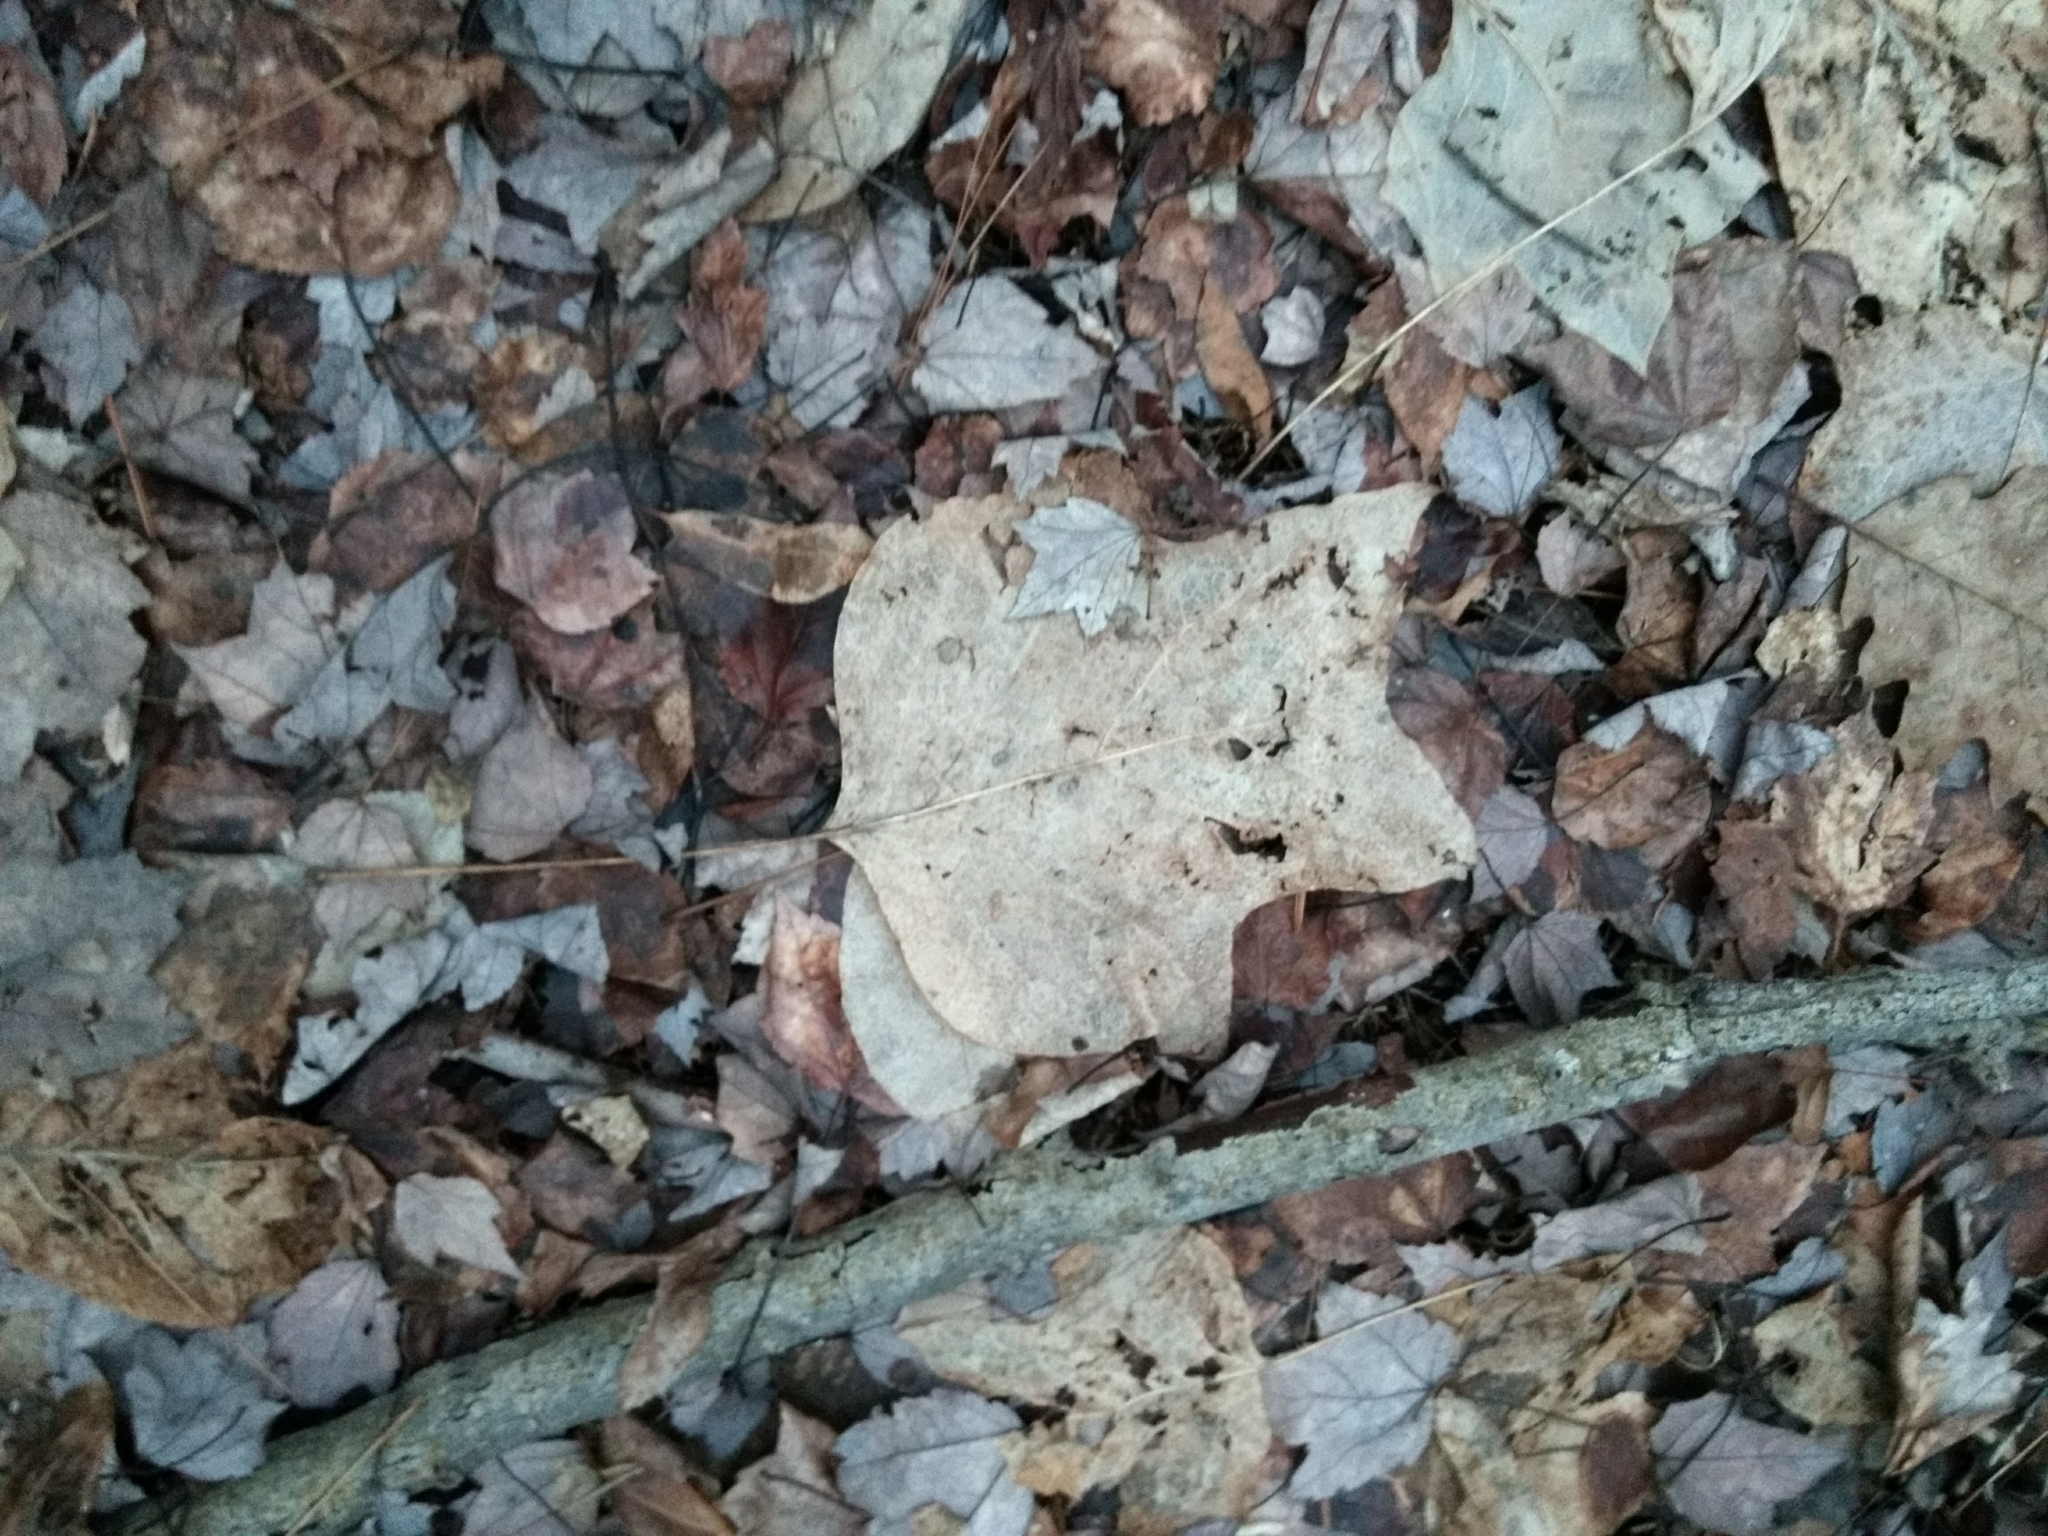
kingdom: Plantae
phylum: Tracheophyta
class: Magnoliopsida
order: Magnoliales
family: Magnoliaceae
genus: Liriodendron
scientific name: Liriodendron tulipifera
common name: Tulip tree
